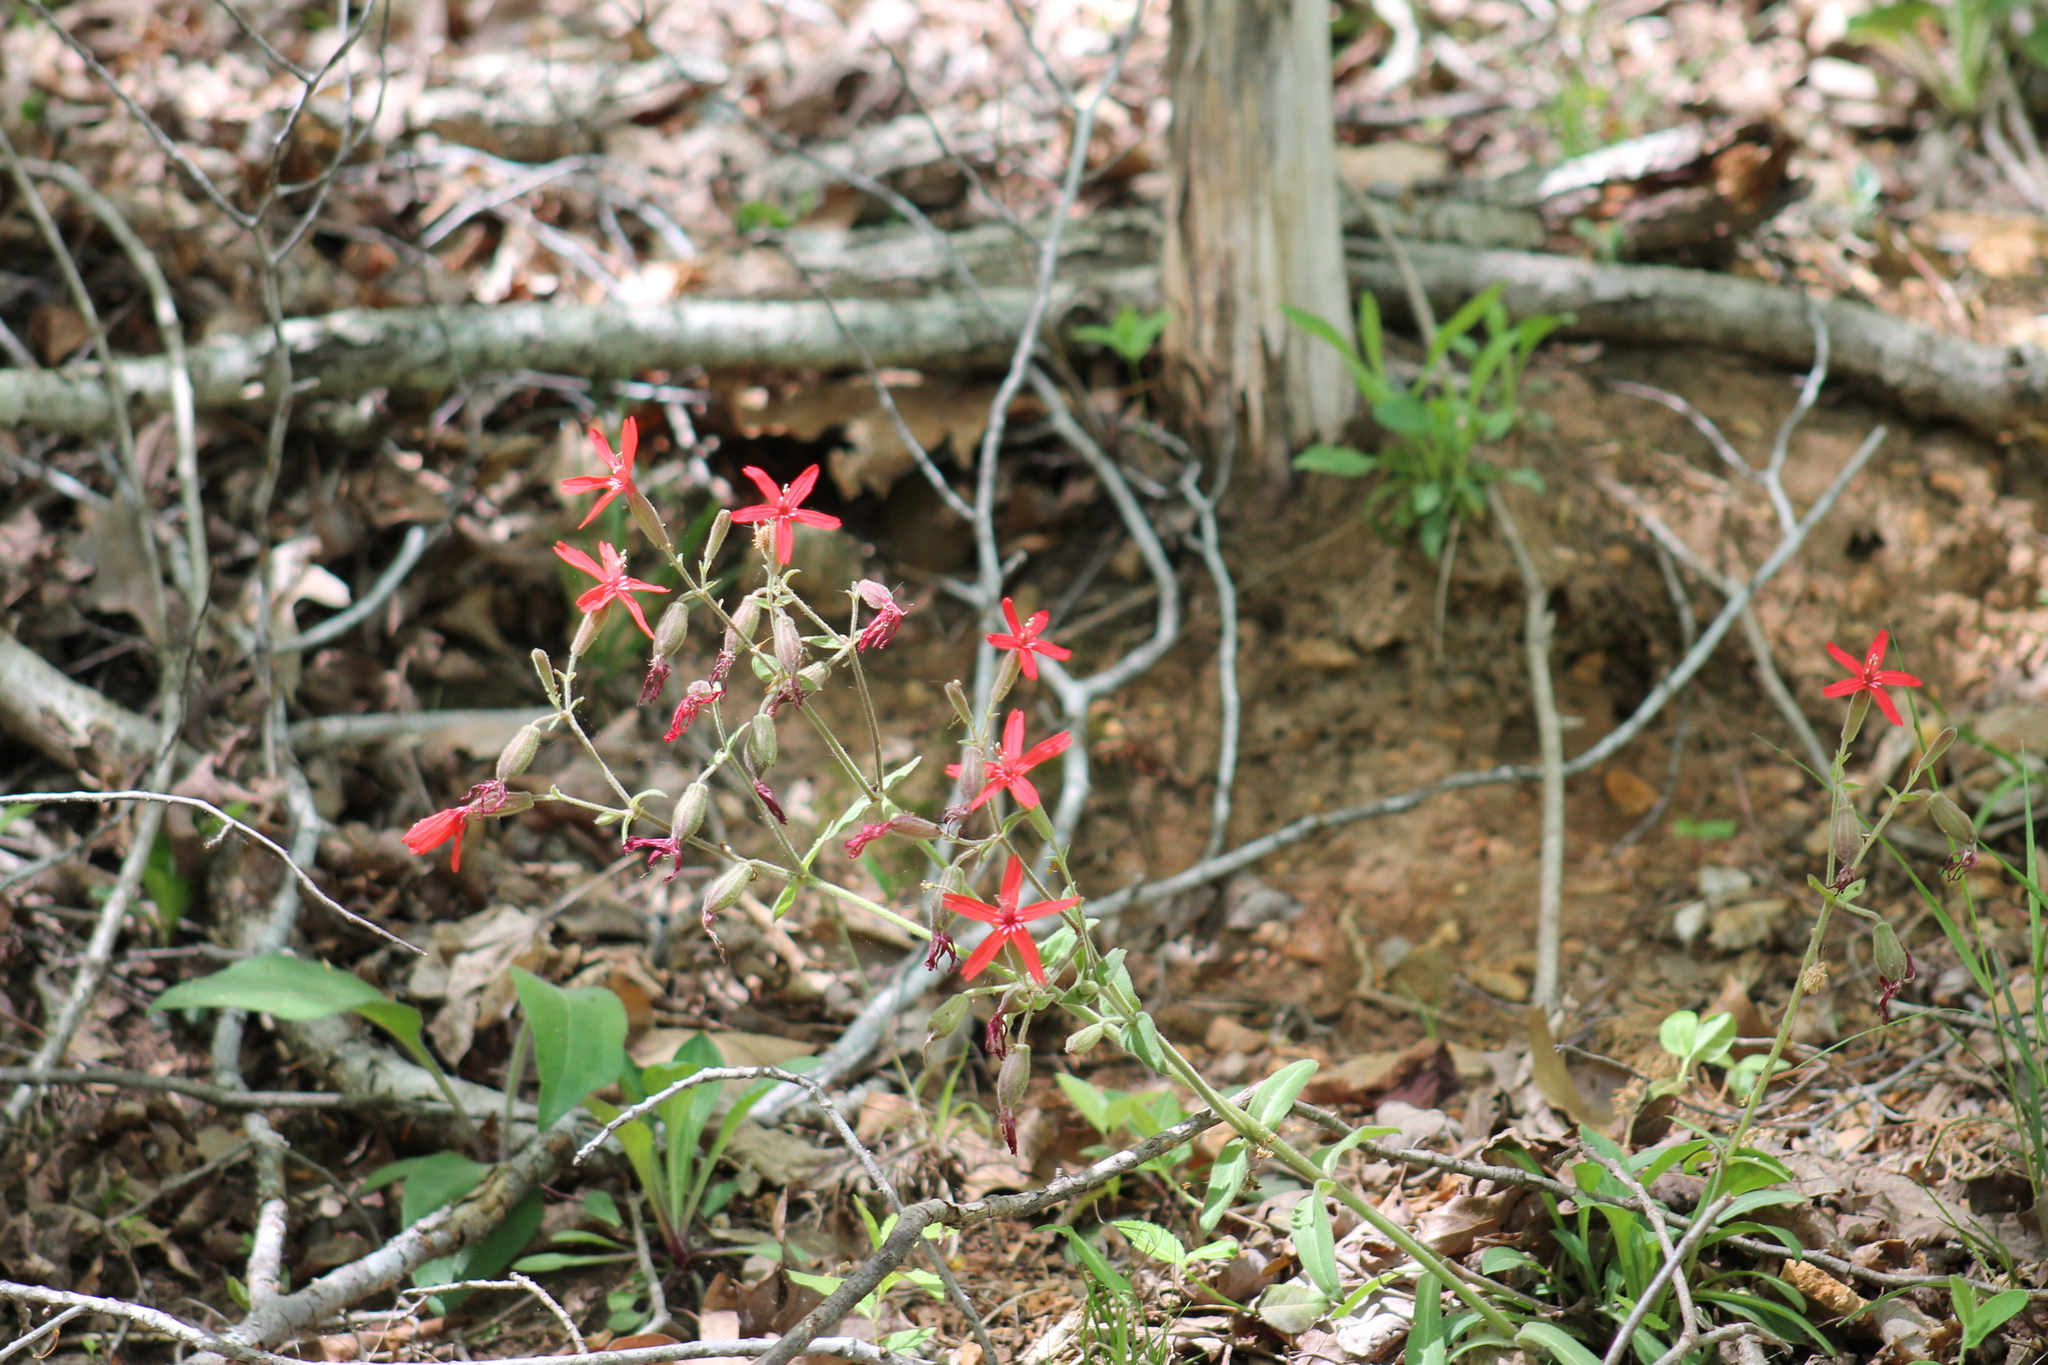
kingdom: Plantae
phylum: Tracheophyta
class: Magnoliopsida
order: Caryophyllales
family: Caryophyllaceae
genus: Silene
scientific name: Silene virginica
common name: Fire-pink
